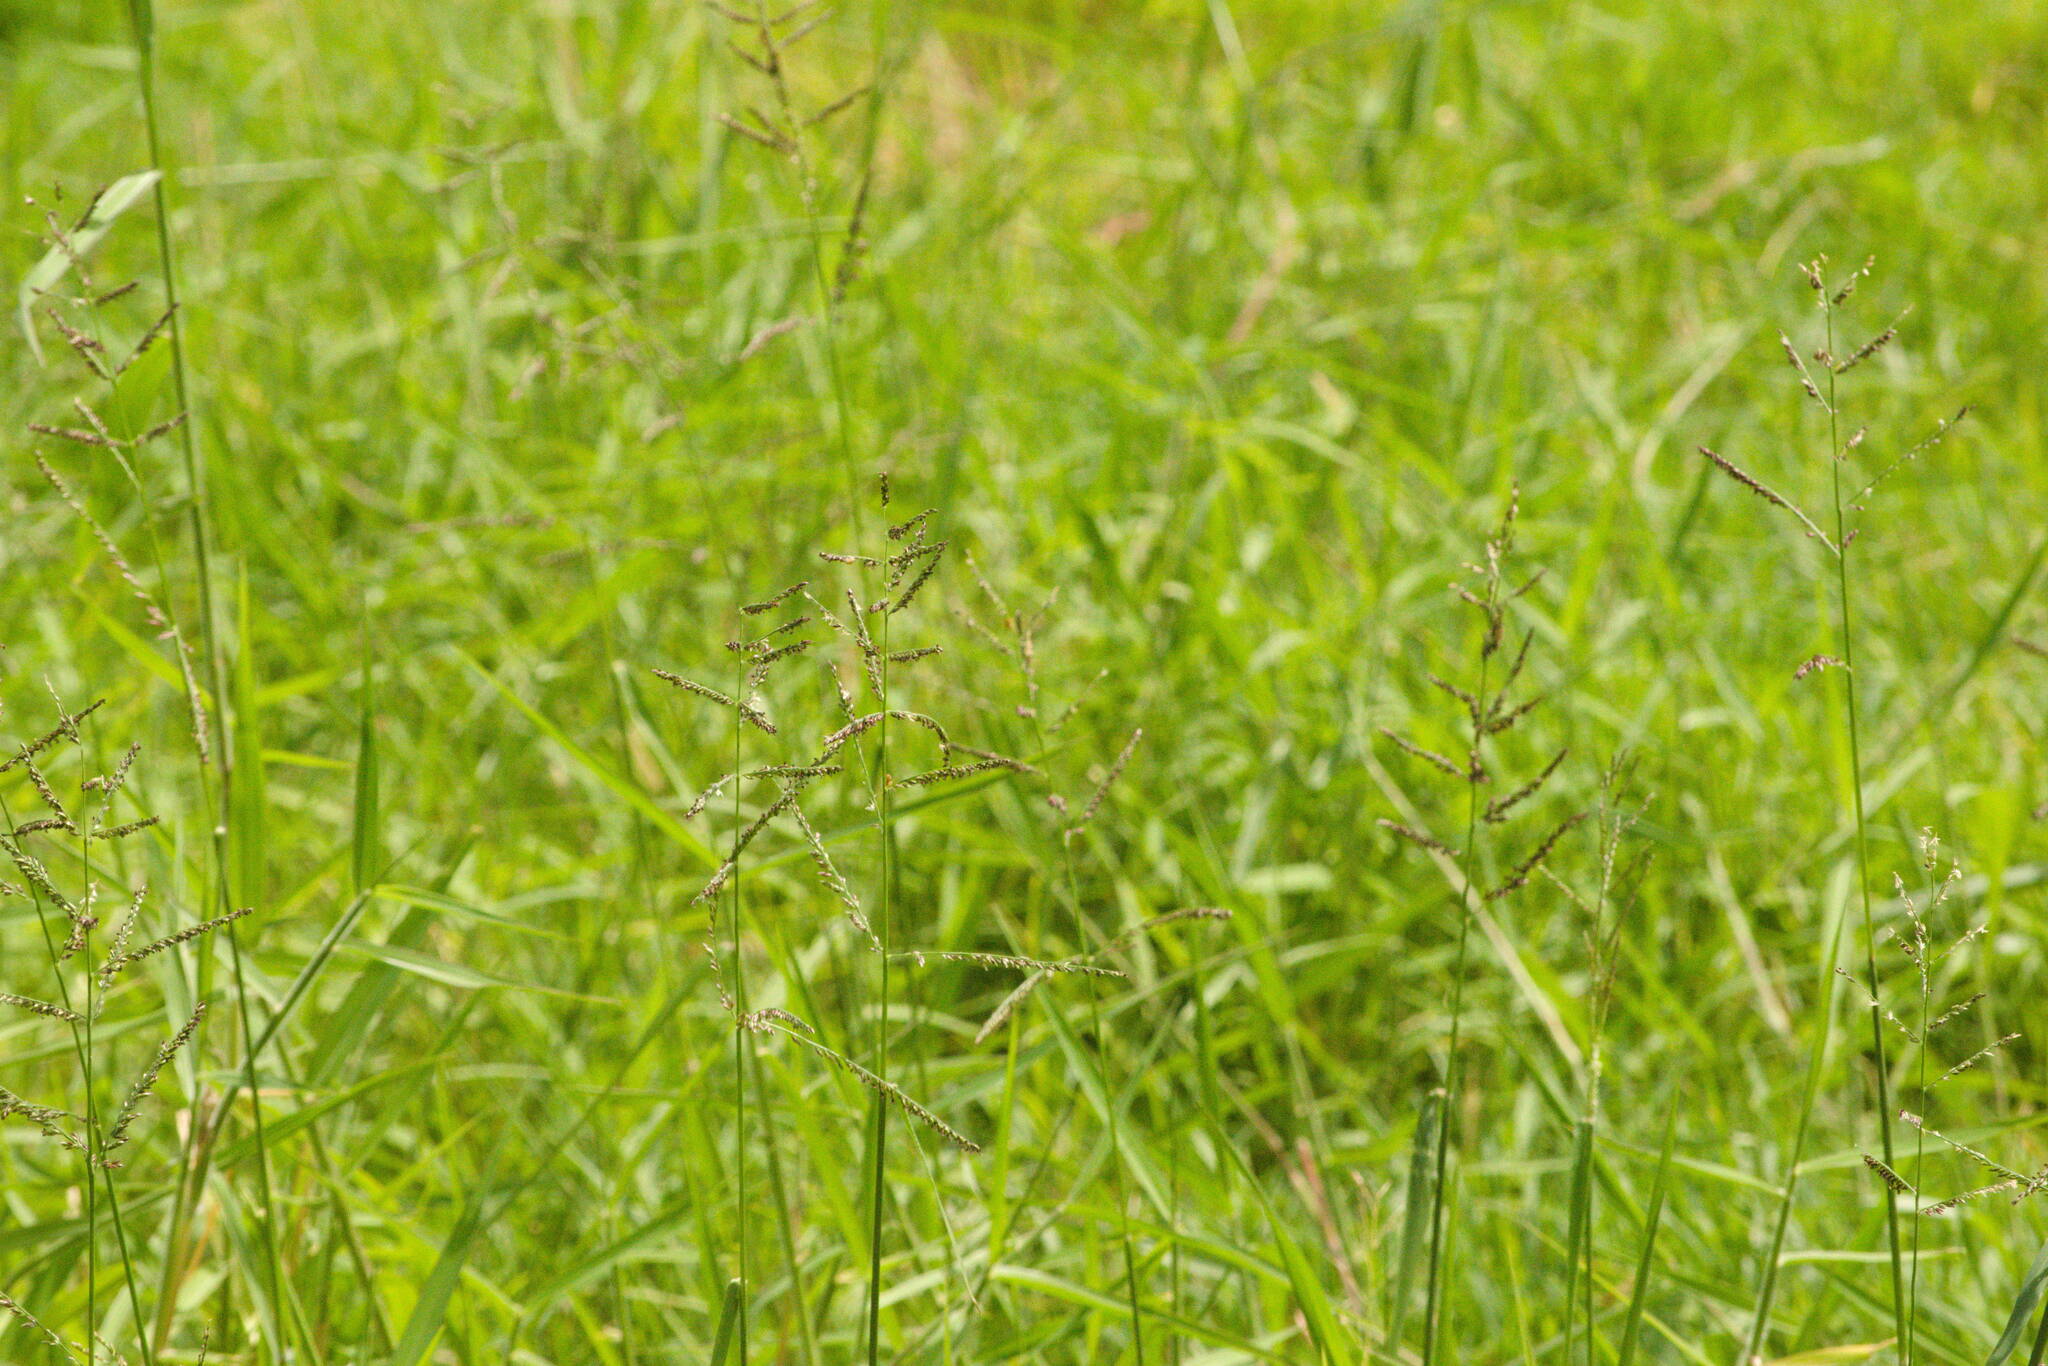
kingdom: Plantae
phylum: Tracheophyta
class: Liliopsida
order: Poales
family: Poaceae
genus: Urochloa
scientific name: Urochloa mutica
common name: Para grass
